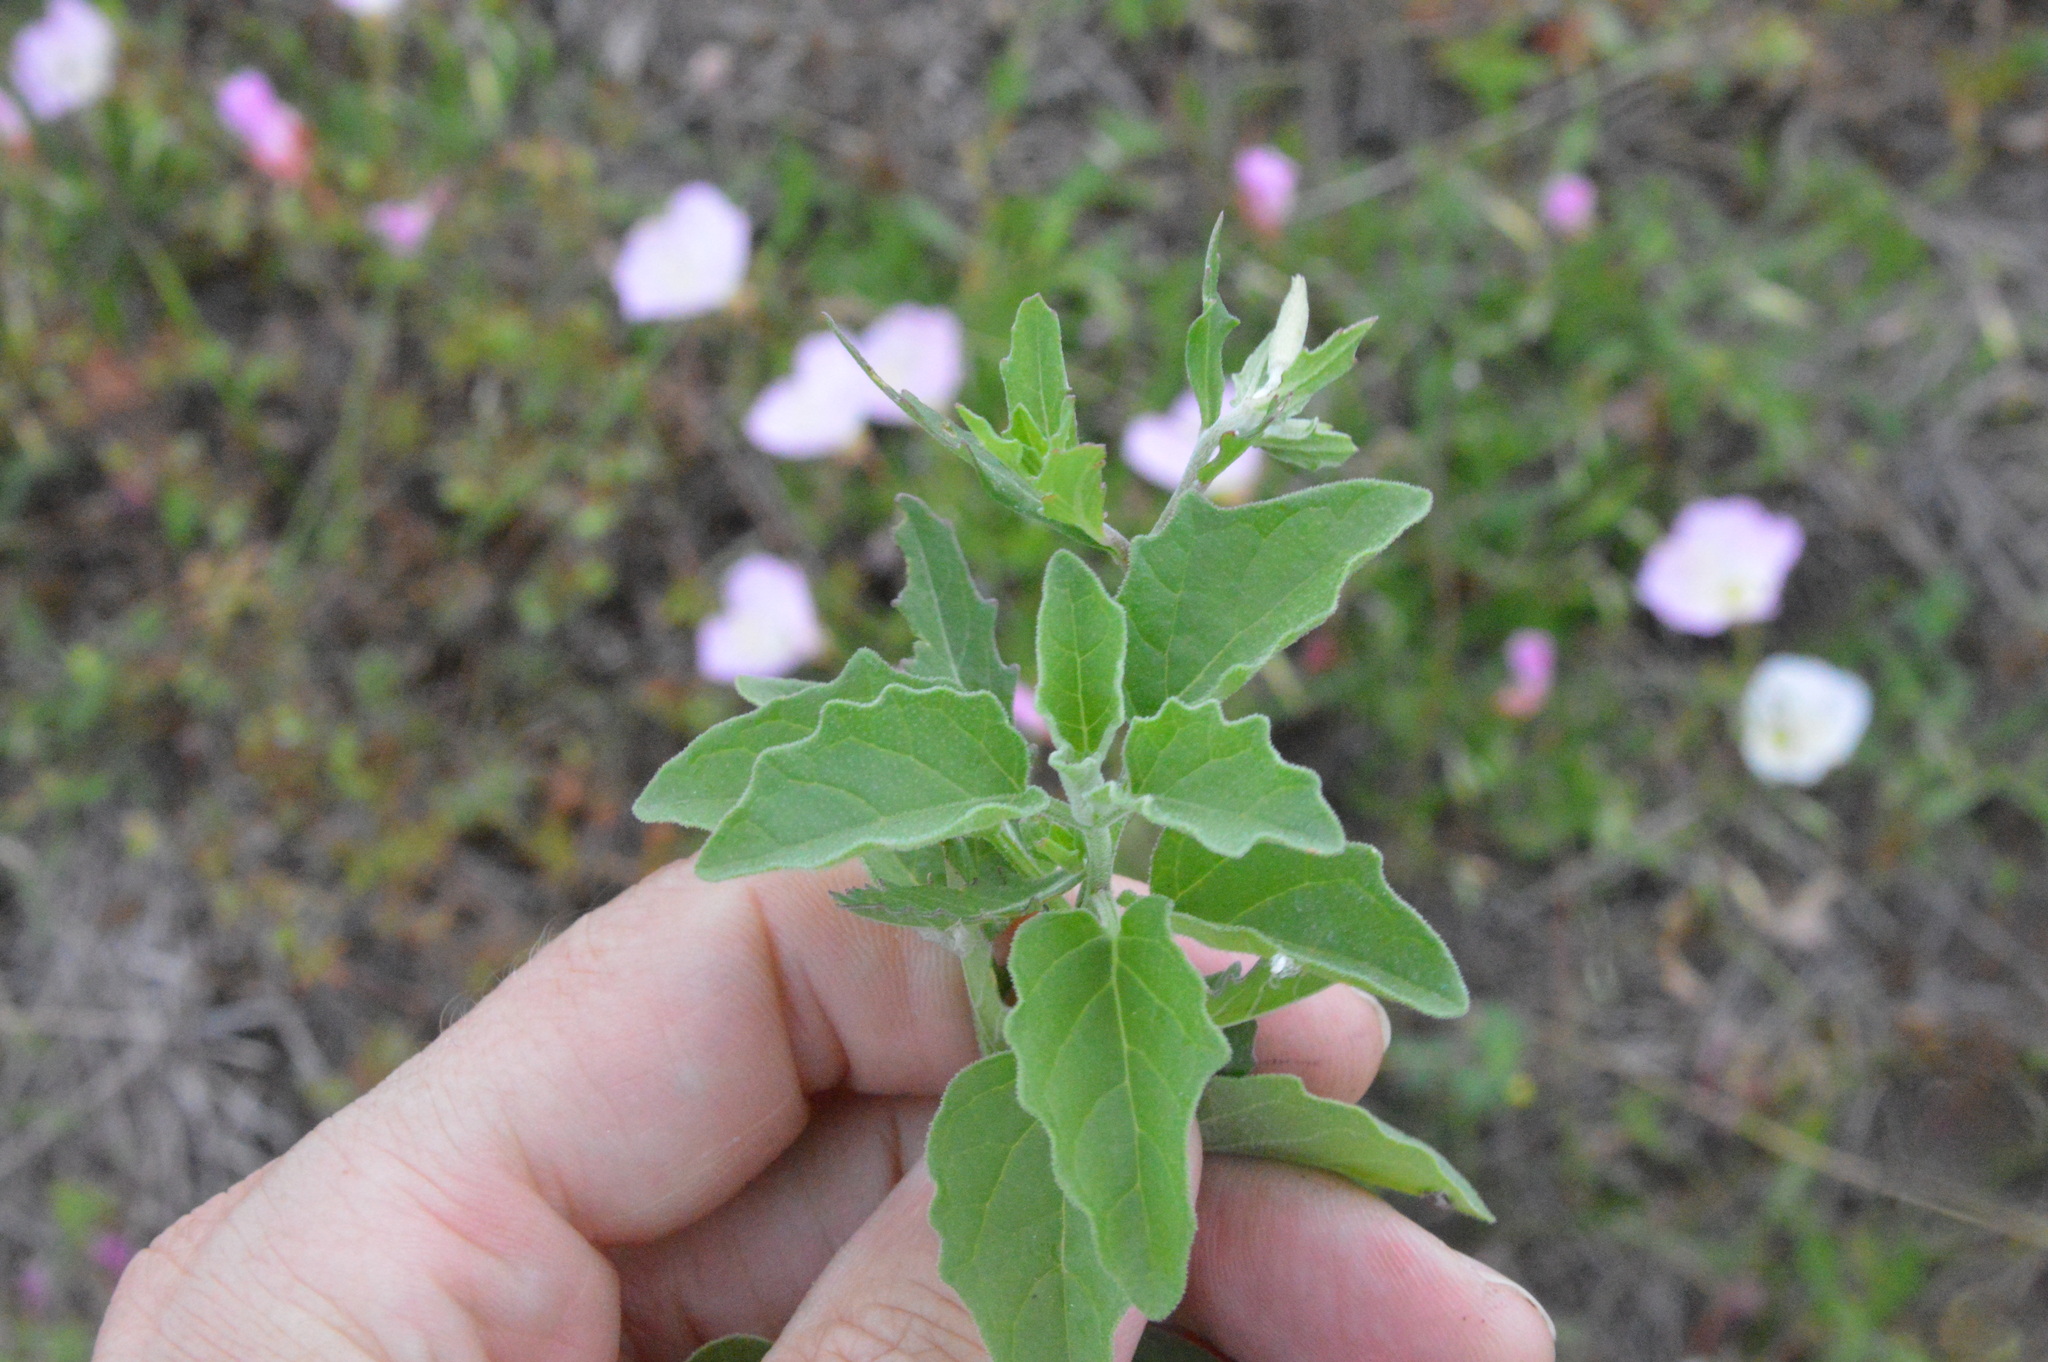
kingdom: Plantae
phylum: Tracheophyta
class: Magnoliopsida
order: Solanales
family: Solanaceae
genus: Physalis
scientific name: Physalis cinerascens
